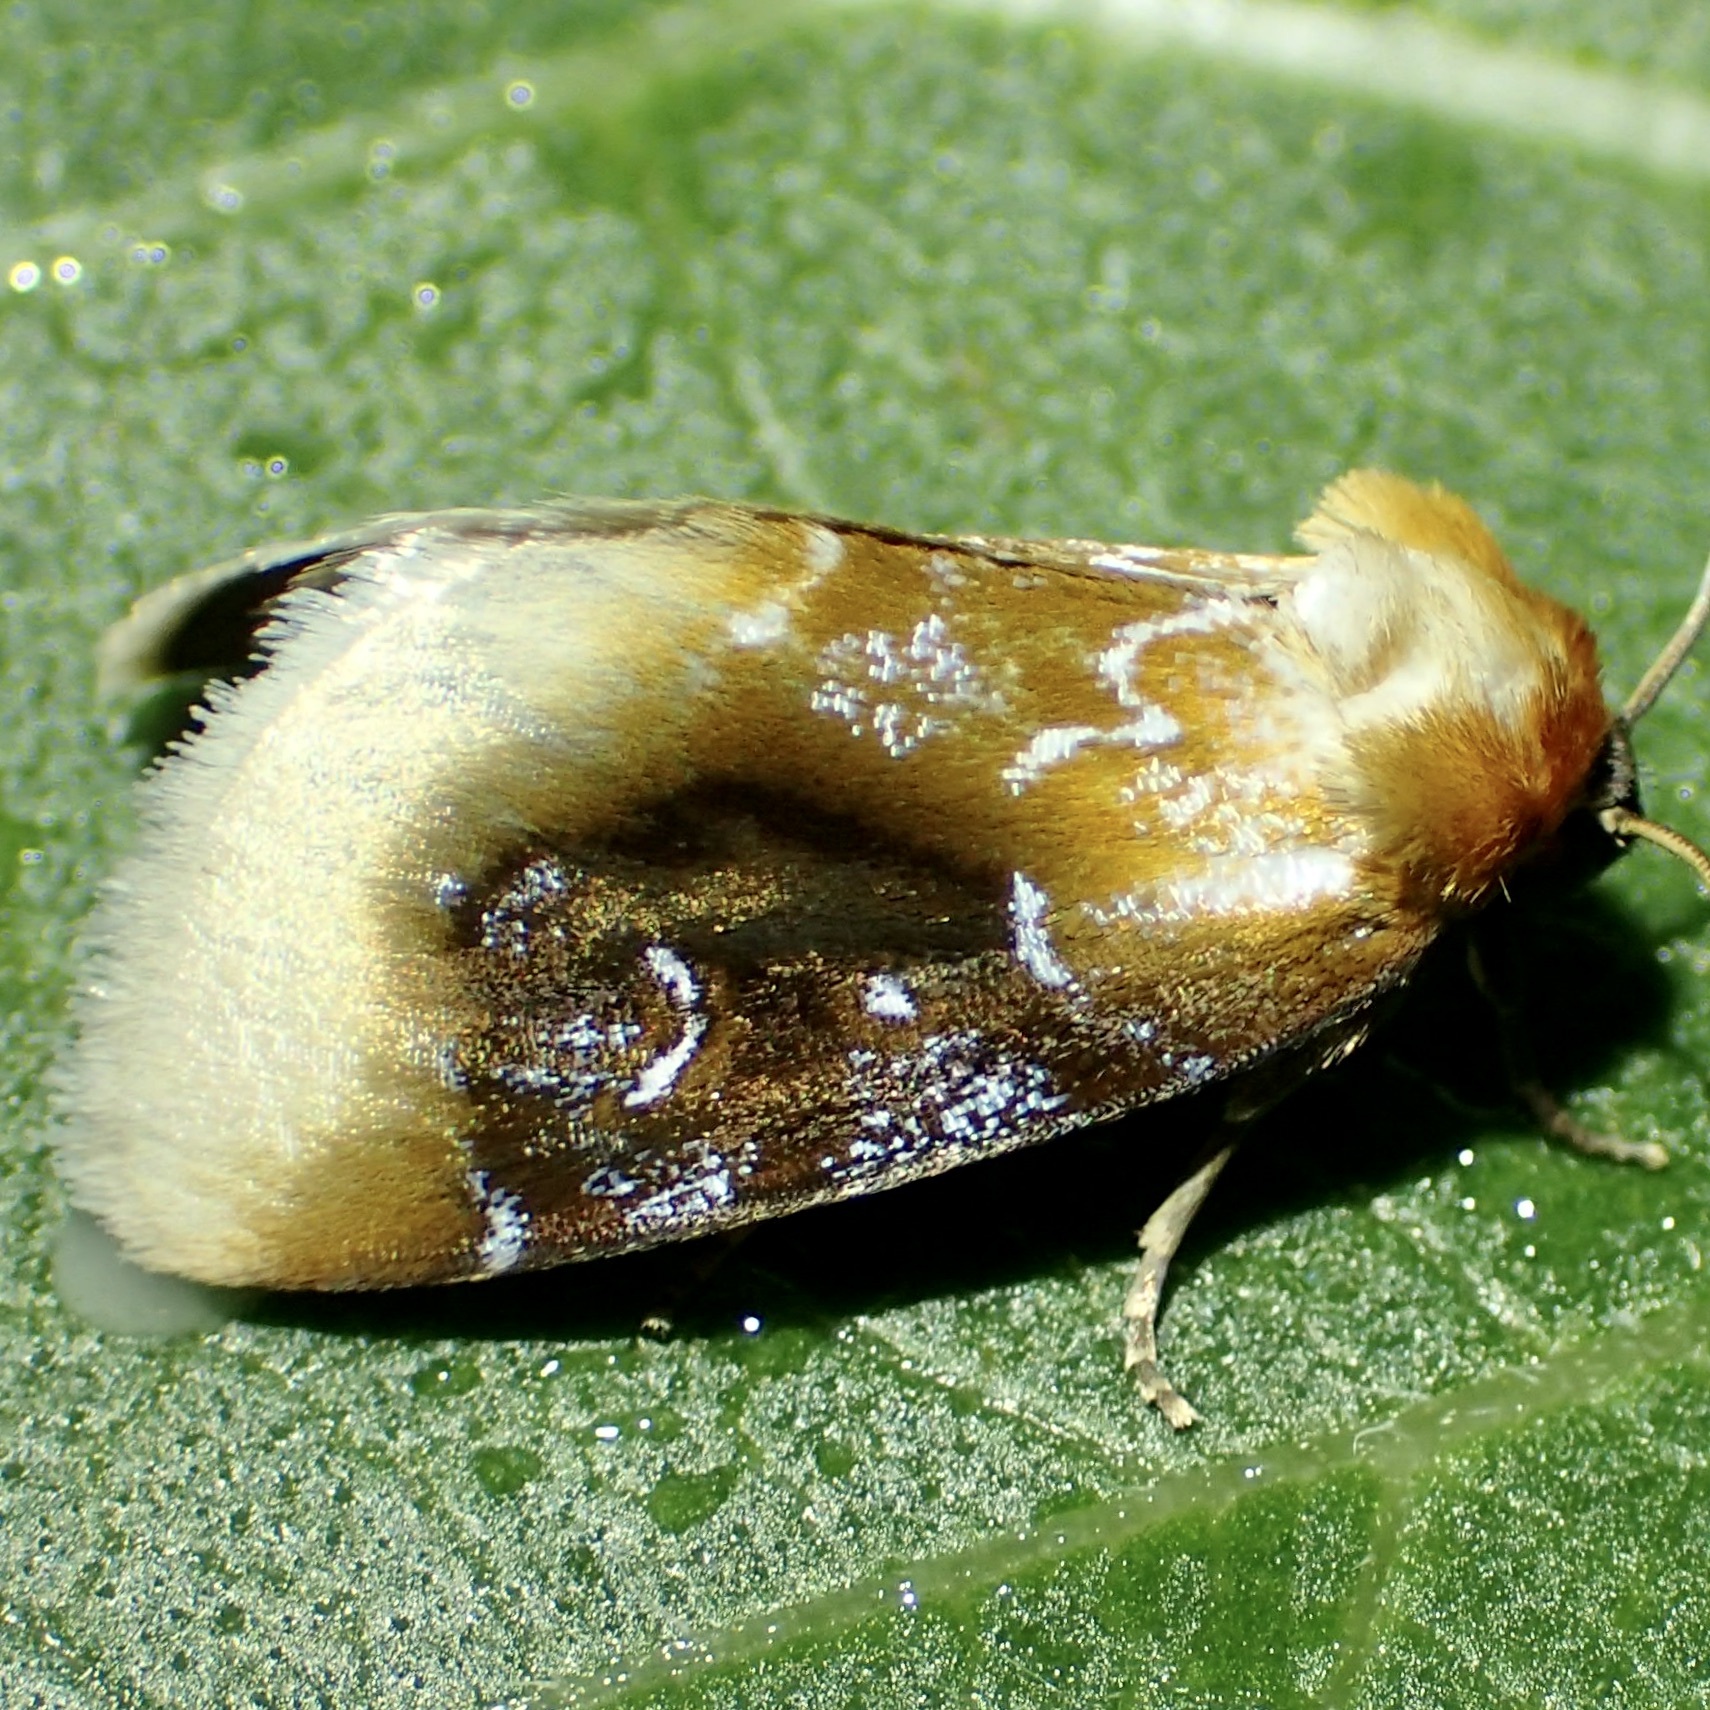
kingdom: Animalia
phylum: Arthropoda
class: Insecta
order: Lepidoptera
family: Noctuidae
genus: Chrysoecia
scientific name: Chrysoecia scira
